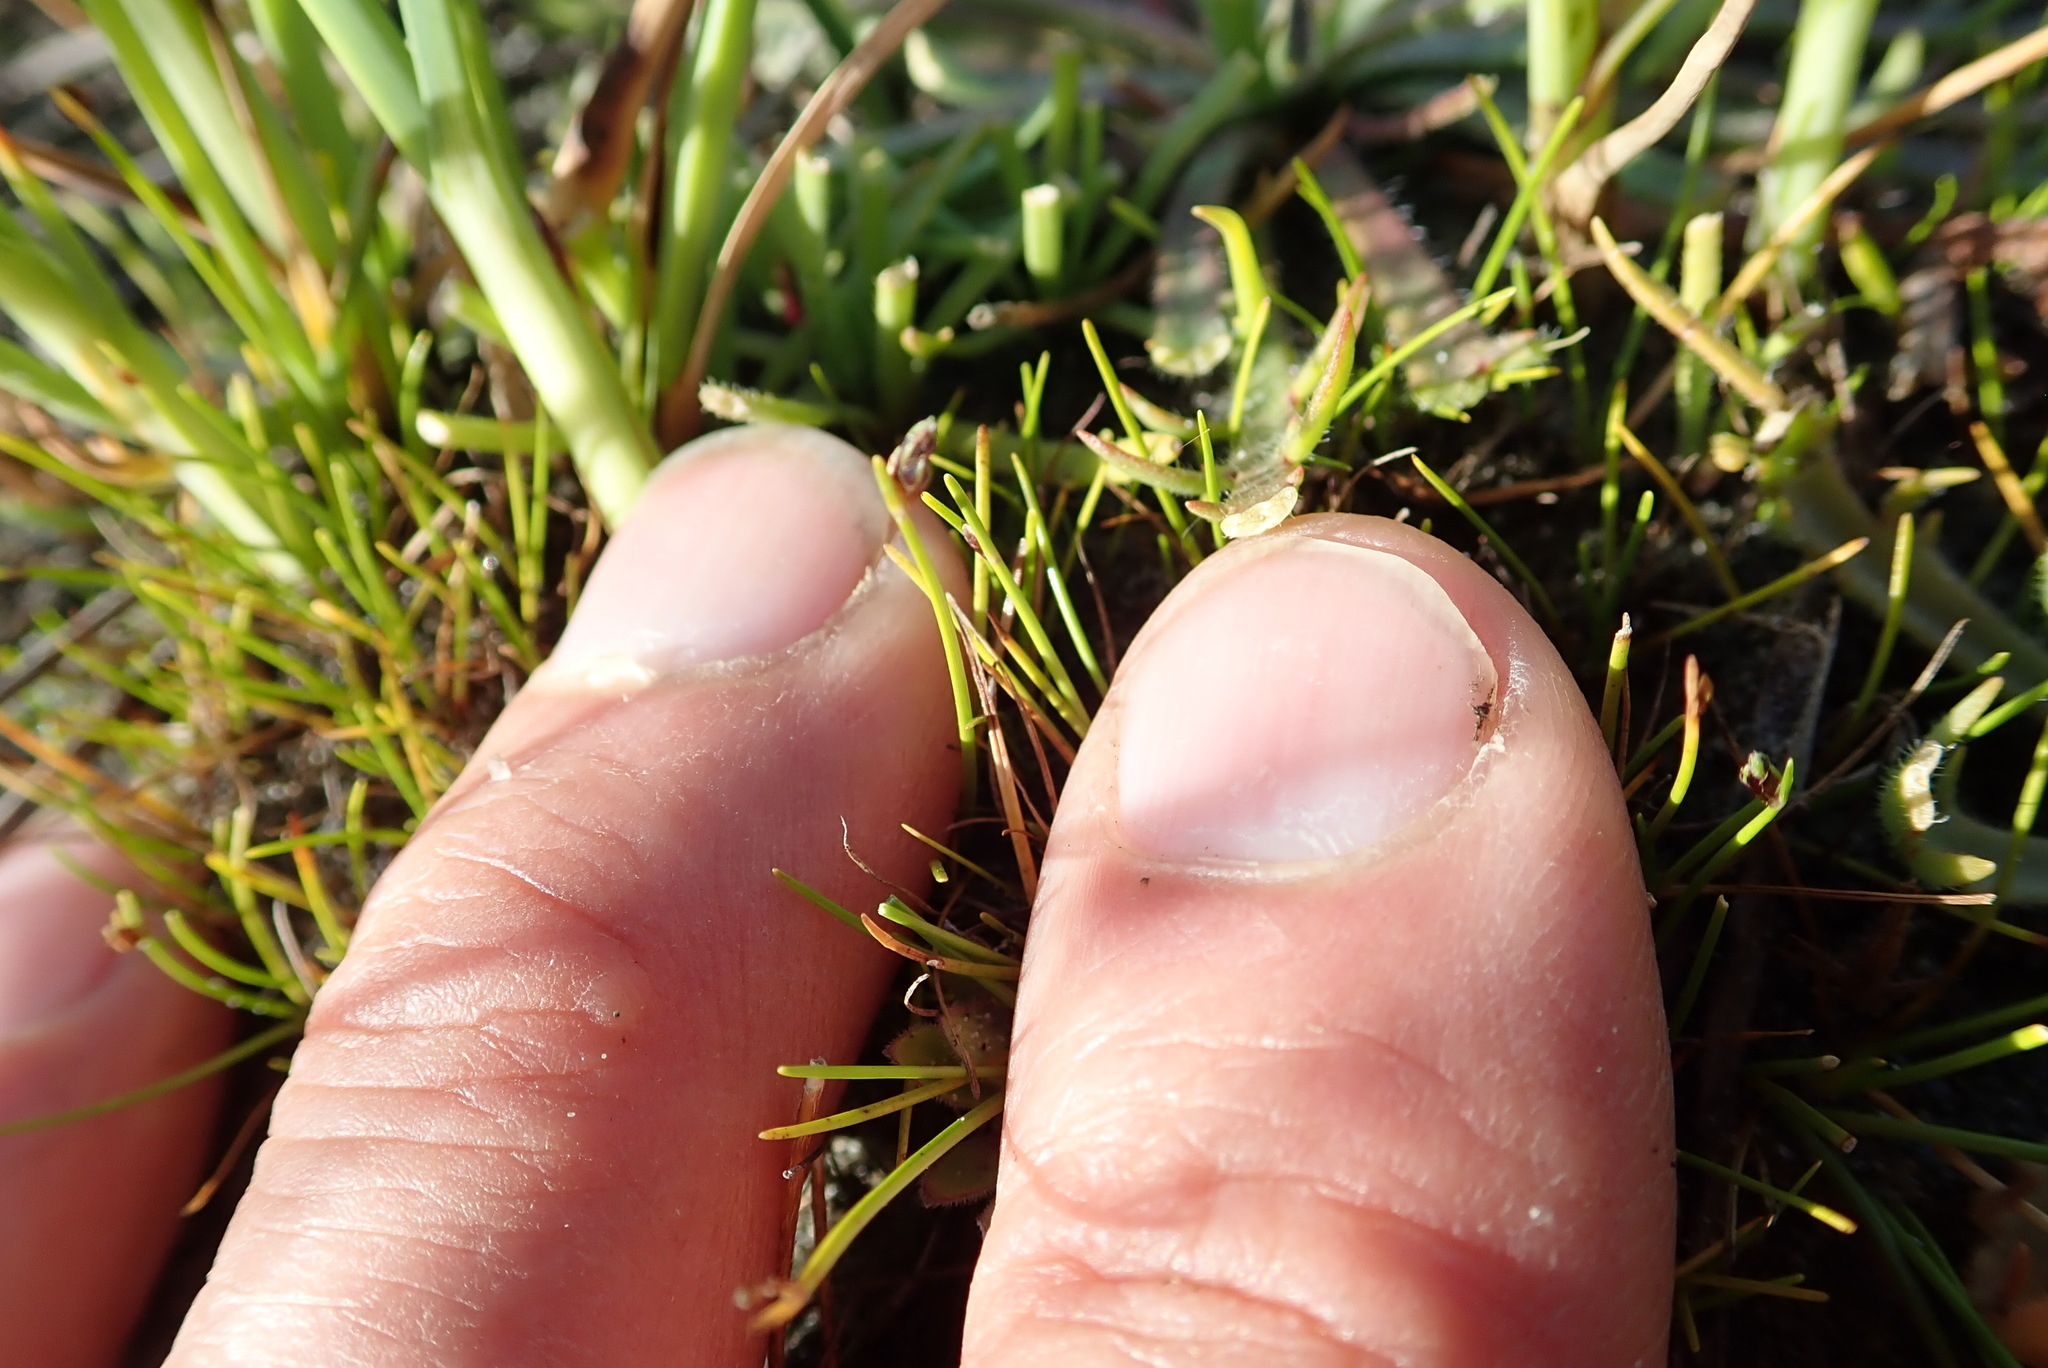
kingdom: Plantae
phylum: Tracheophyta
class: Liliopsida
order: Poales
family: Cyperaceae
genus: Isolepis
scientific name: Isolepis cernua
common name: Slender club-rush
